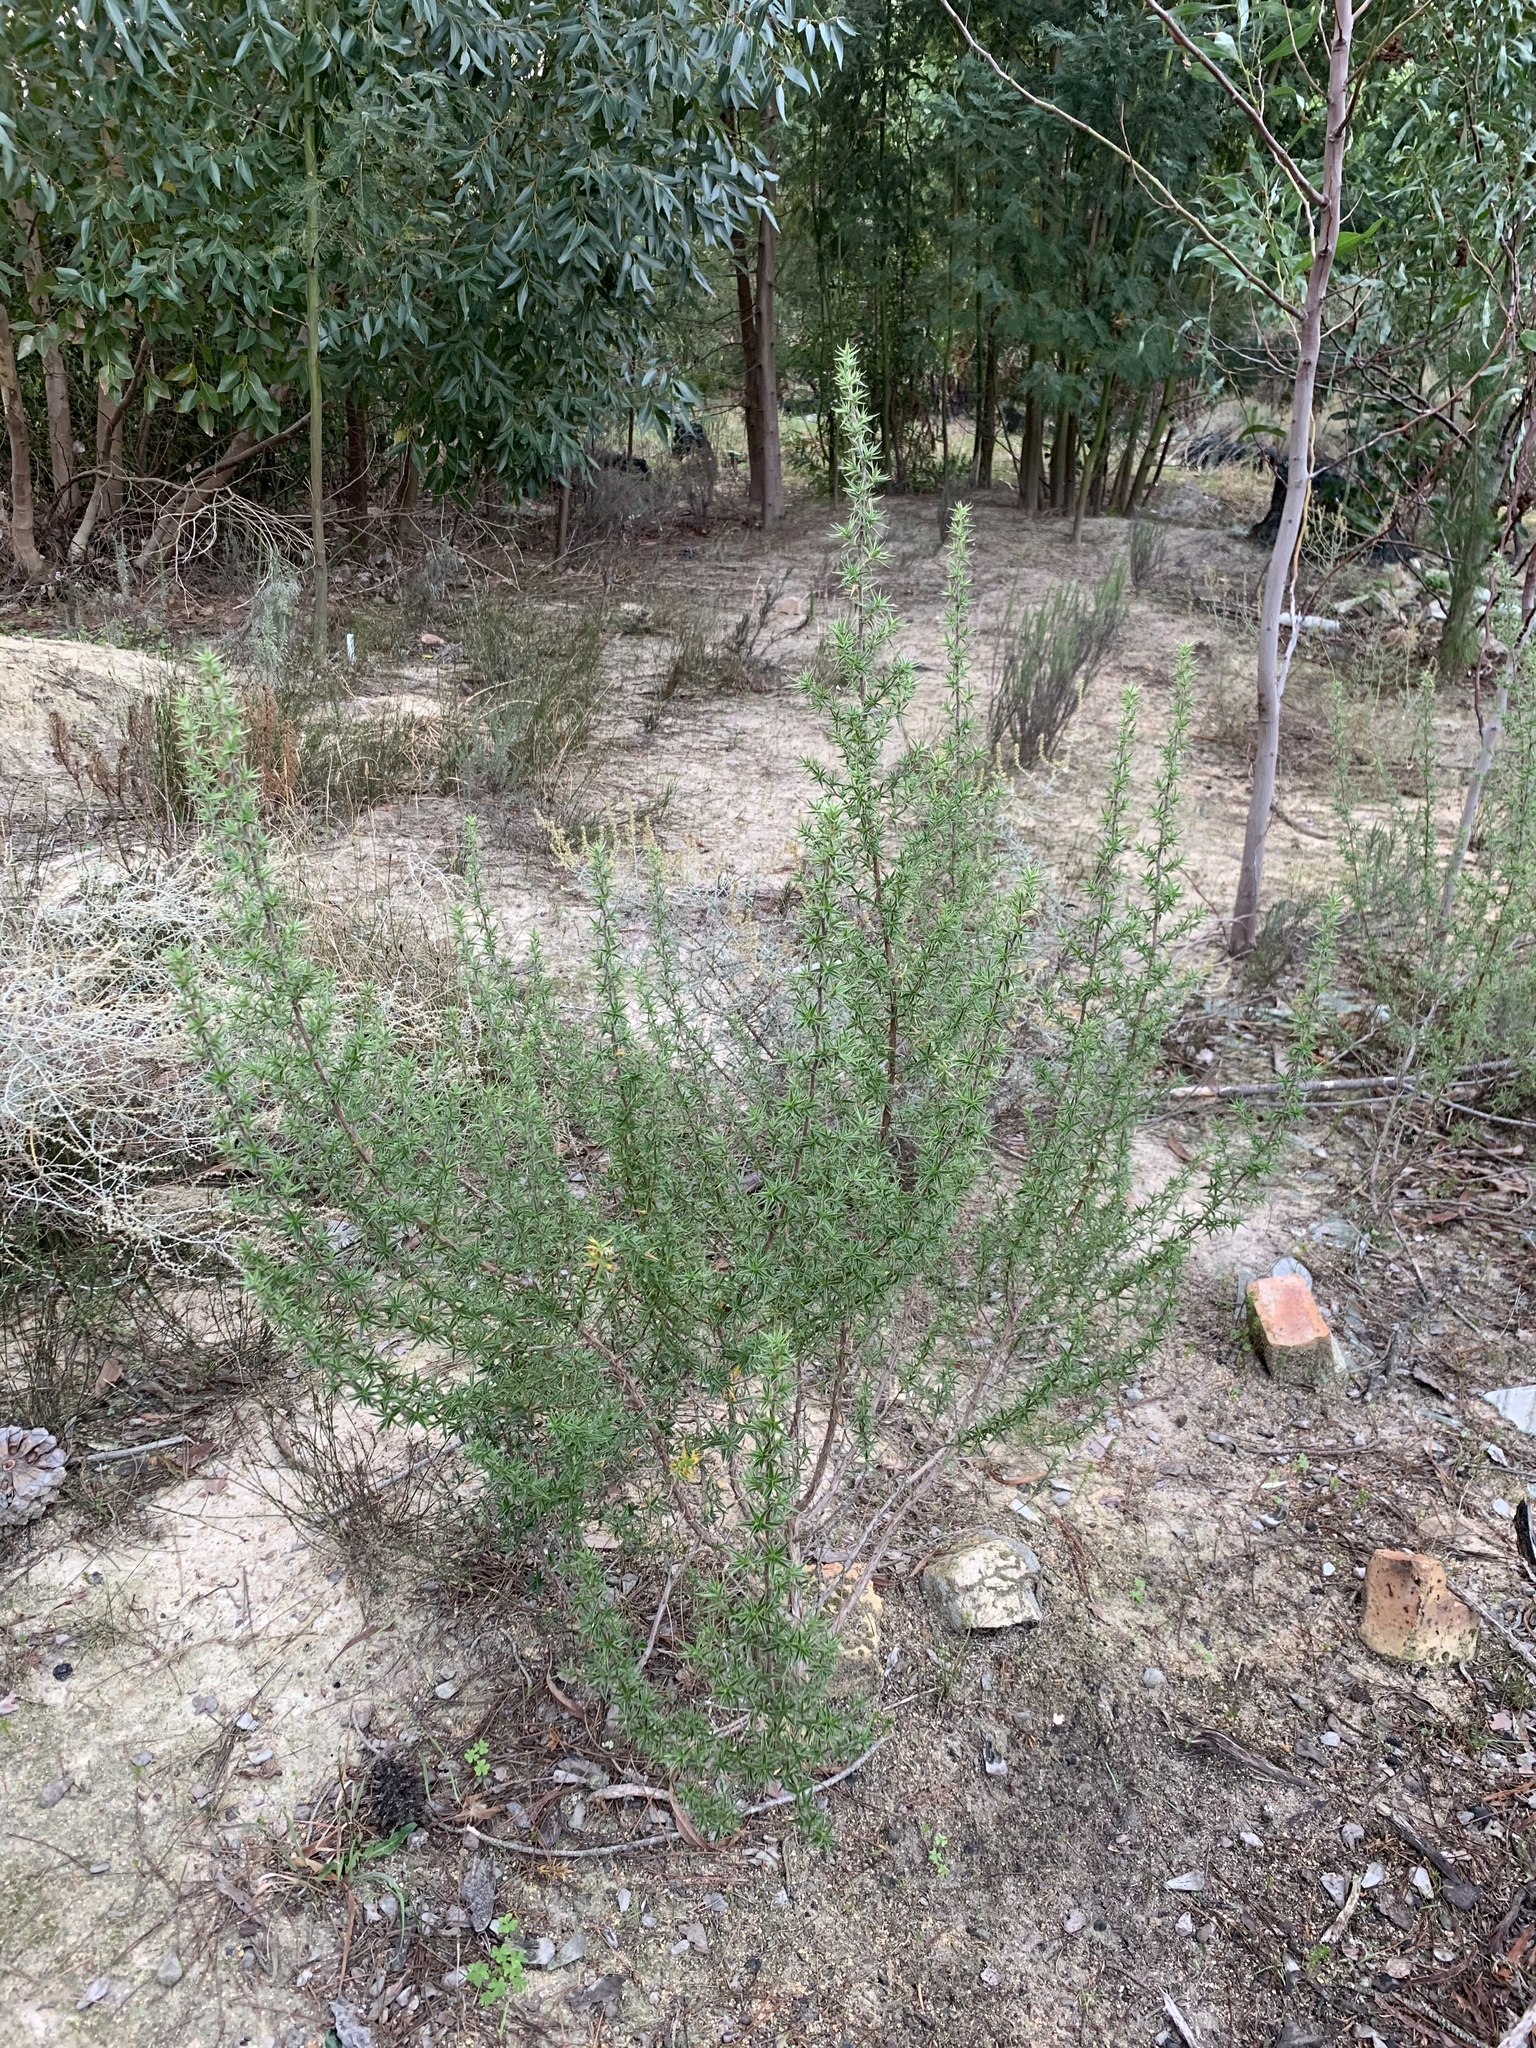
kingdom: Plantae
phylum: Tracheophyta
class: Magnoliopsida
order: Rosales
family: Rosaceae
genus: Cliffortia
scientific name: Cliffortia ruscifolia
